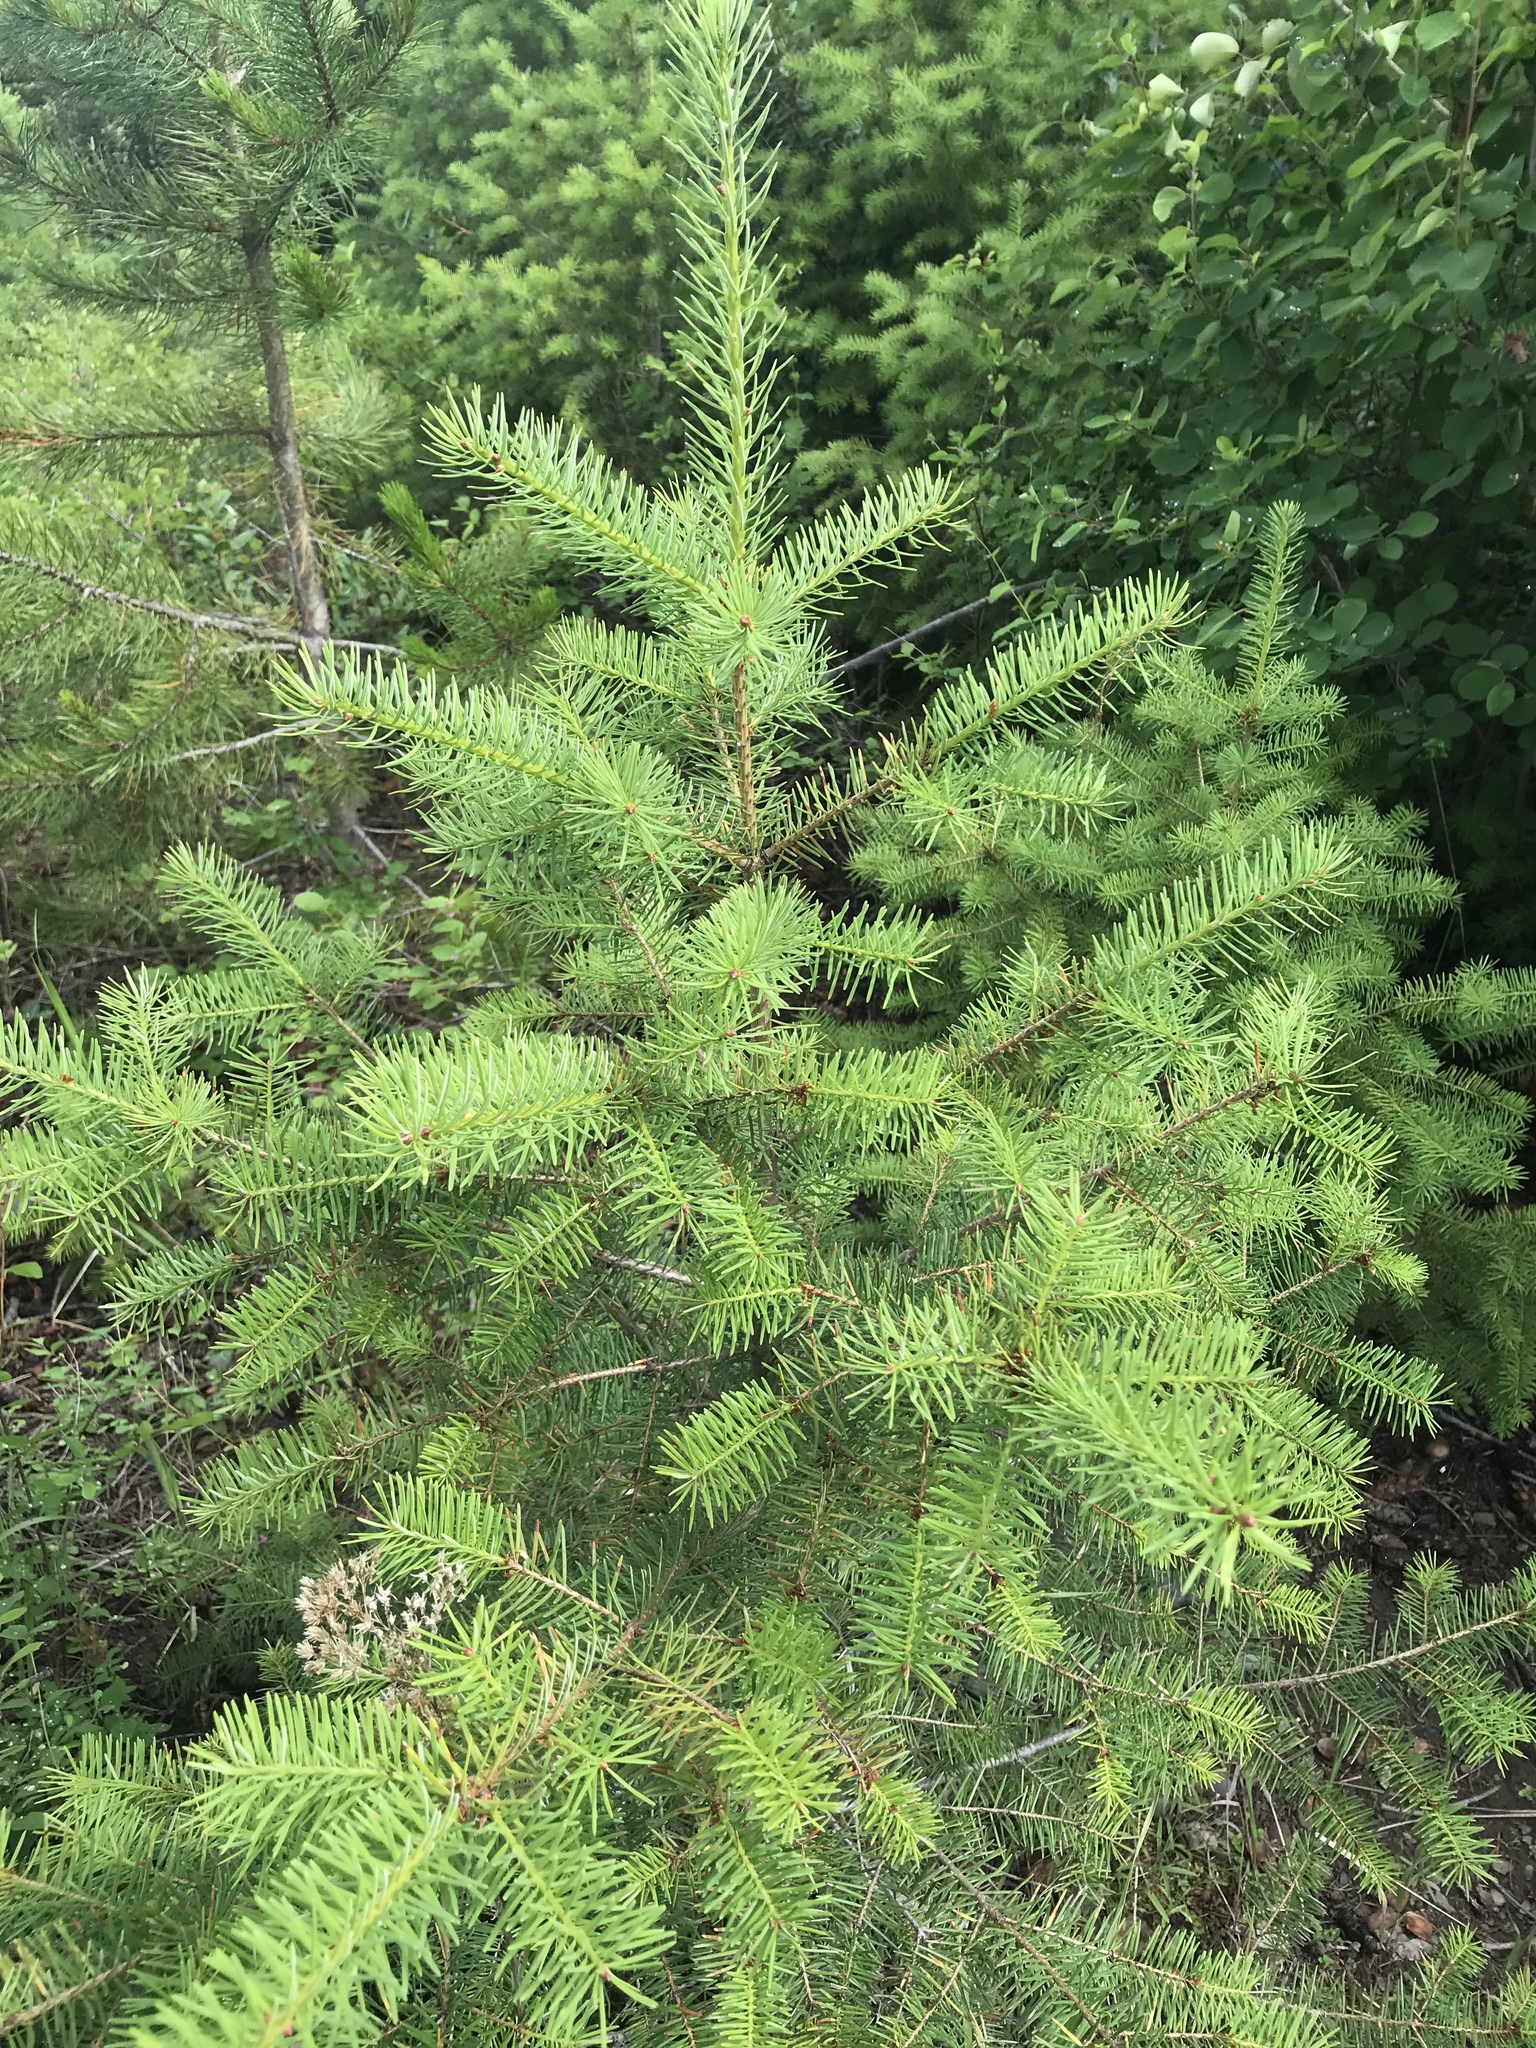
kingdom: Plantae
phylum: Tracheophyta
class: Pinopsida
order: Pinales
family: Pinaceae
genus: Pseudotsuga
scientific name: Pseudotsuga menziesii
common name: Douglas fir
